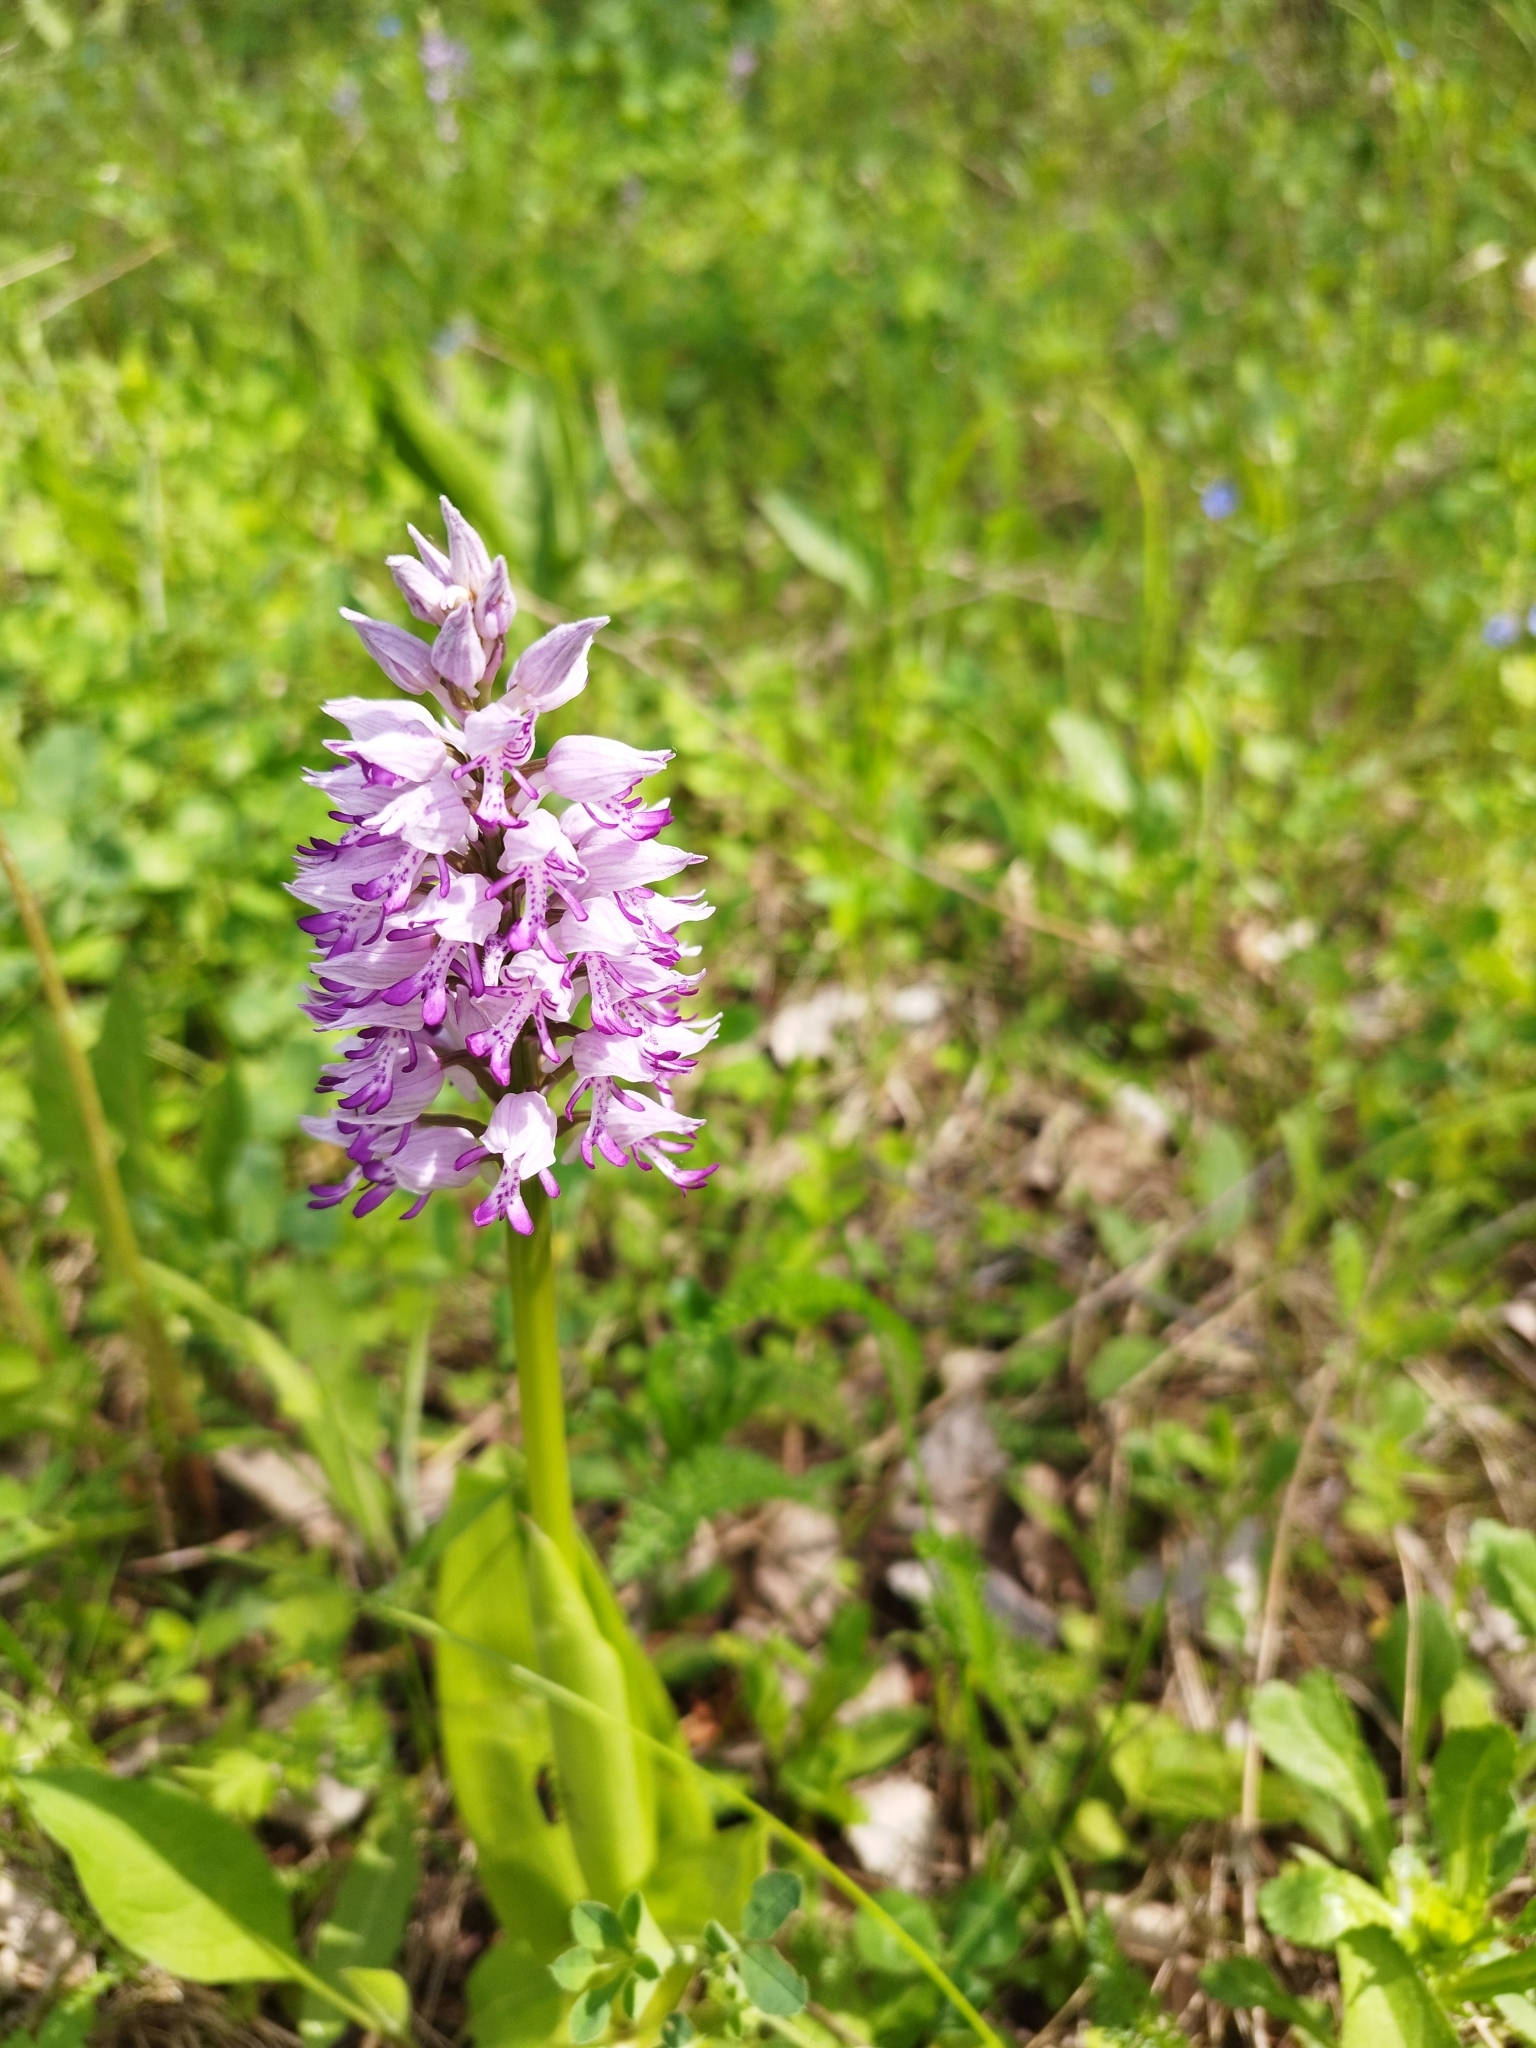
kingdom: Plantae
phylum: Tracheophyta
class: Liliopsida
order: Asparagales
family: Orchidaceae
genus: Orchis
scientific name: Orchis militaris
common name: Military orchid
